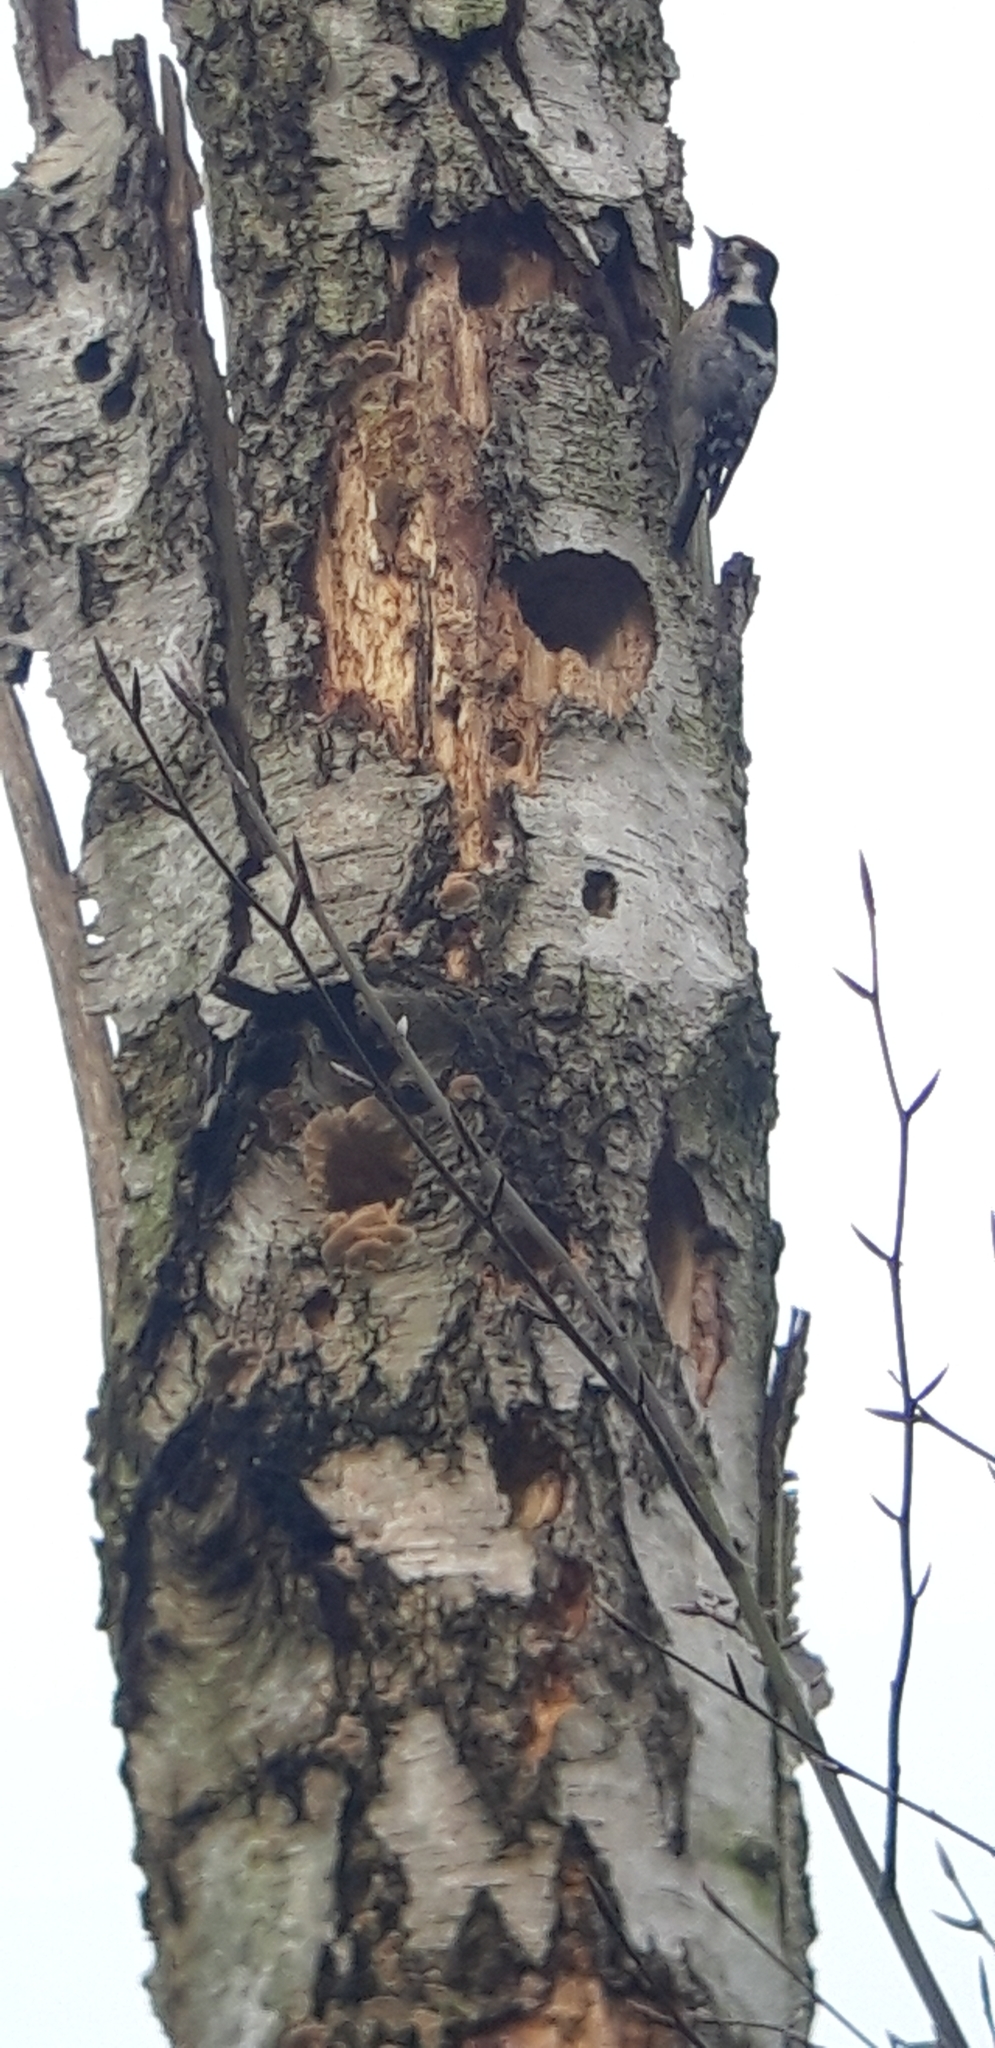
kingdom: Animalia
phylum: Chordata
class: Aves
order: Piciformes
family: Picidae
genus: Dryobates
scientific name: Dryobates minor
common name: Lesser spotted woodpecker
